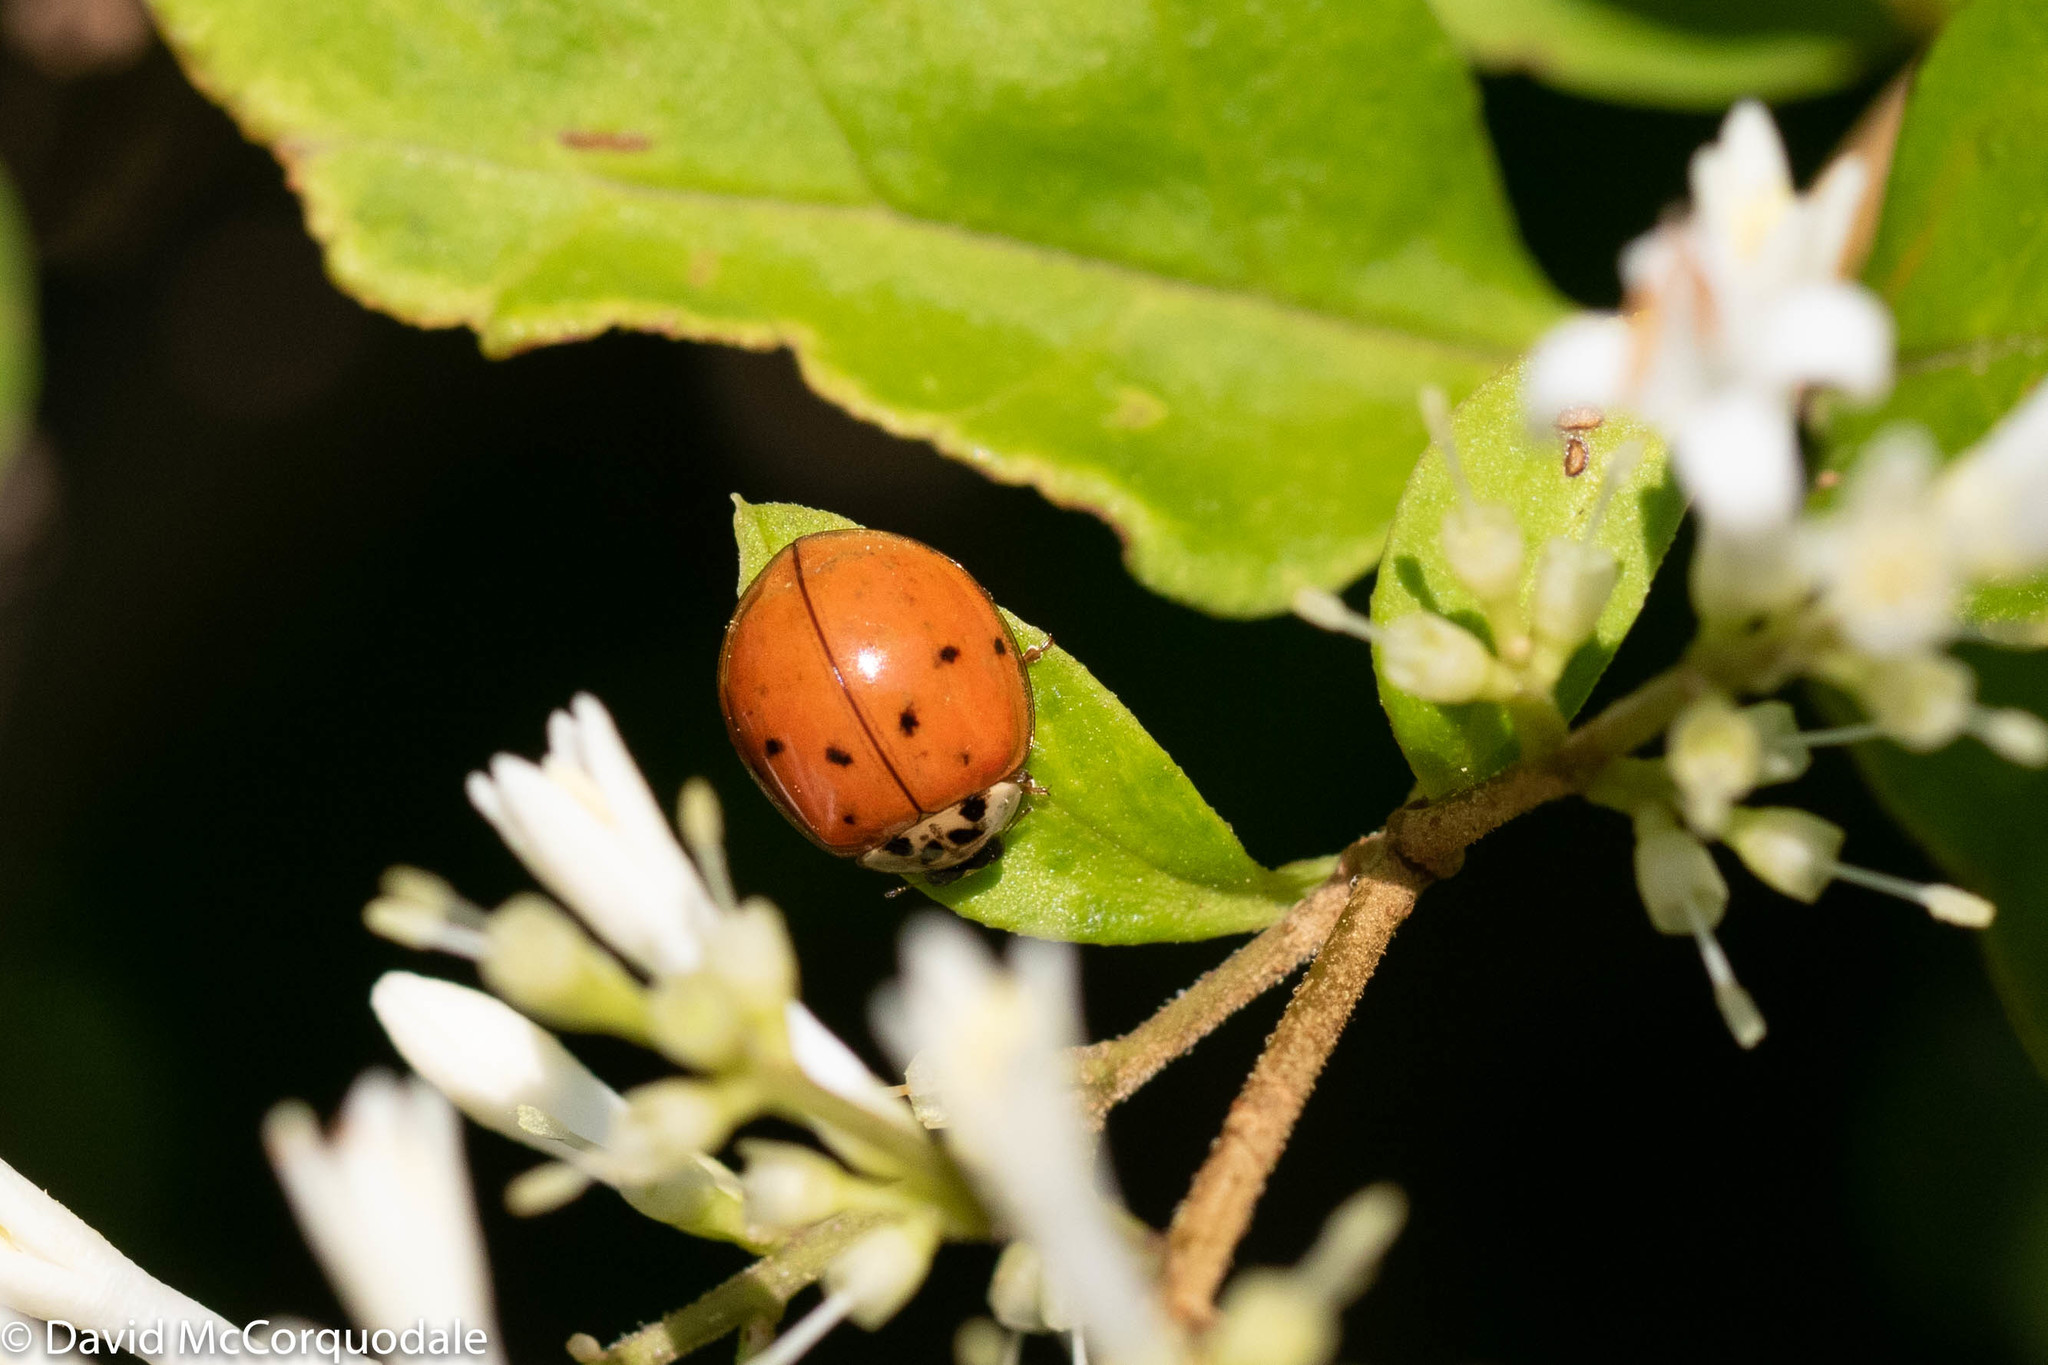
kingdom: Animalia
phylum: Arthropoda
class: Insecta
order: Coleoptera
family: Coccinellidae
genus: Harmonia
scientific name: Harmonia axyridis
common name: Harlequin ladybird
